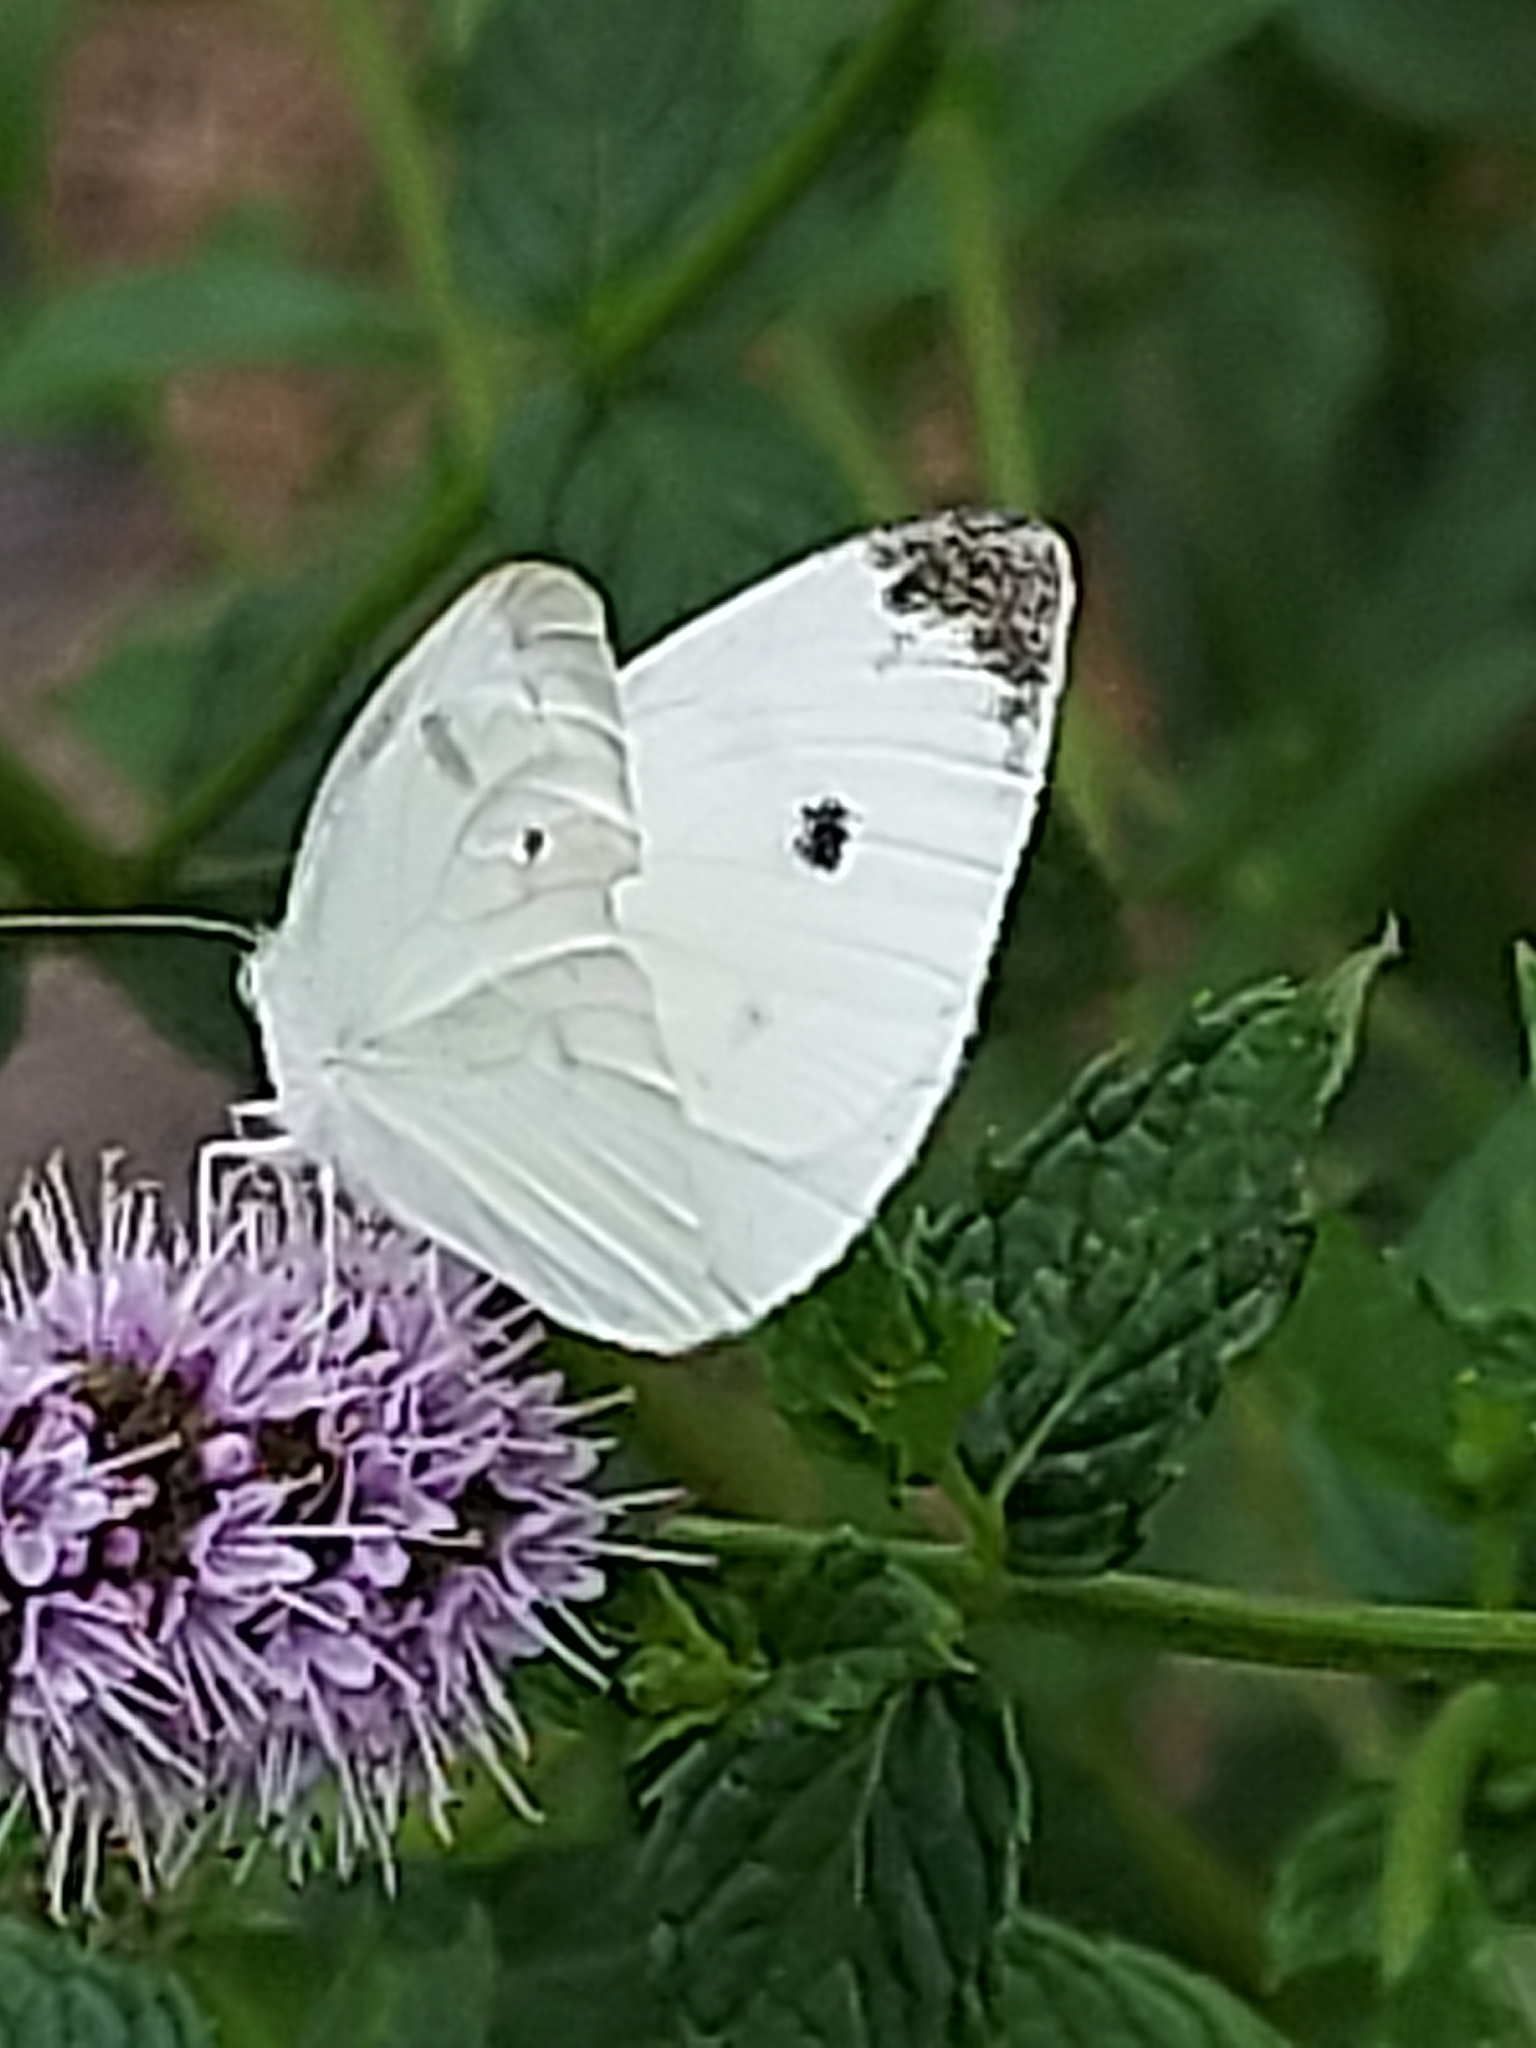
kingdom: Animalia
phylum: Arthropoda
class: Insecta
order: Lepidoptera
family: Pieridae
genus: Pieris
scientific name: Pieris rapae
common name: Small white
